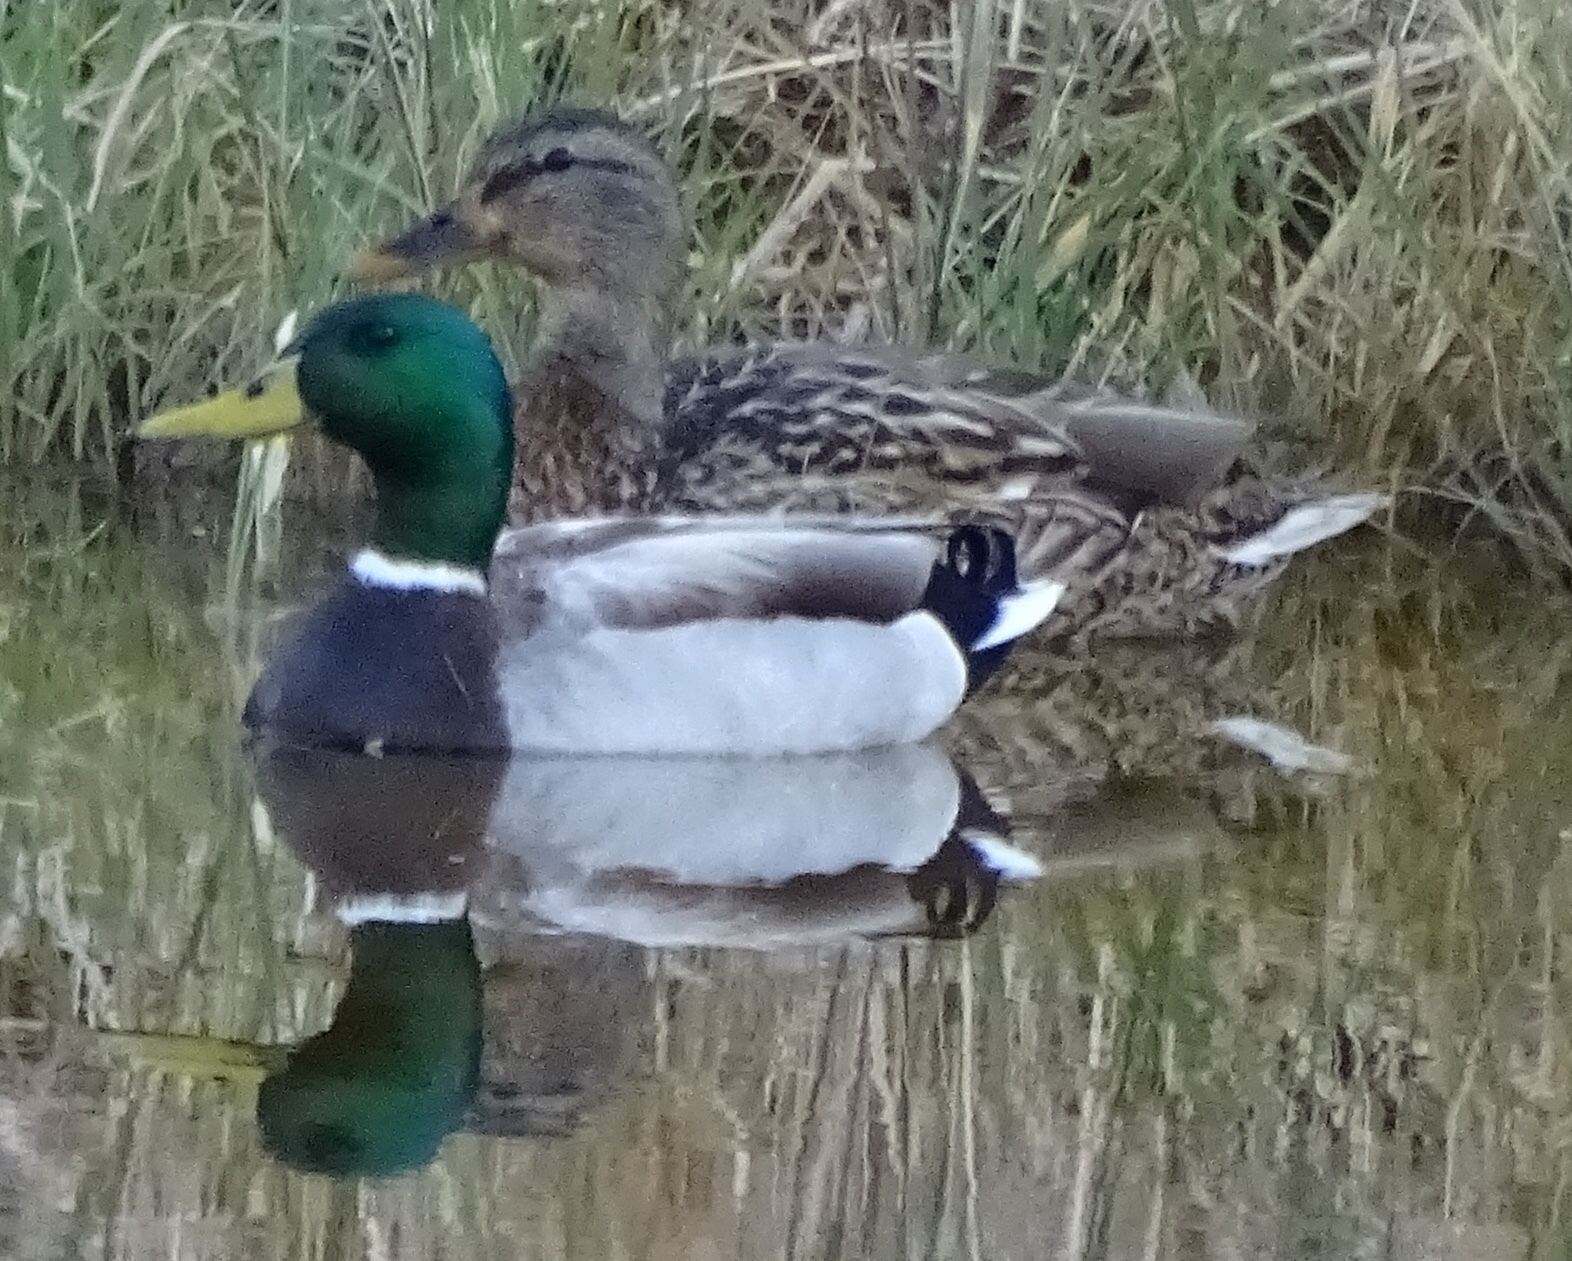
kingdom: Animalia
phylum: Chordata
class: Aves
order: Anseriformes
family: Anatidae
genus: Anas
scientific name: Anas platyrhynchos
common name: Mallard
